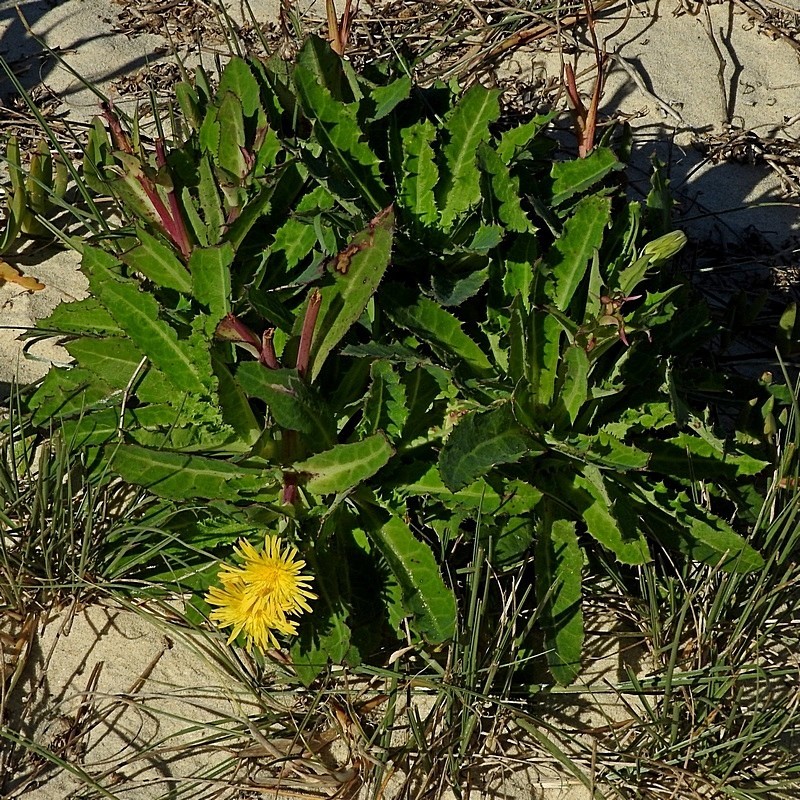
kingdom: Plantae
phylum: Tracheophyta
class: Magnoliopsida
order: Asterales
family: Asteraceae
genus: Sonchus
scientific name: Sonchus megalocarpus
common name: Dune thistle
